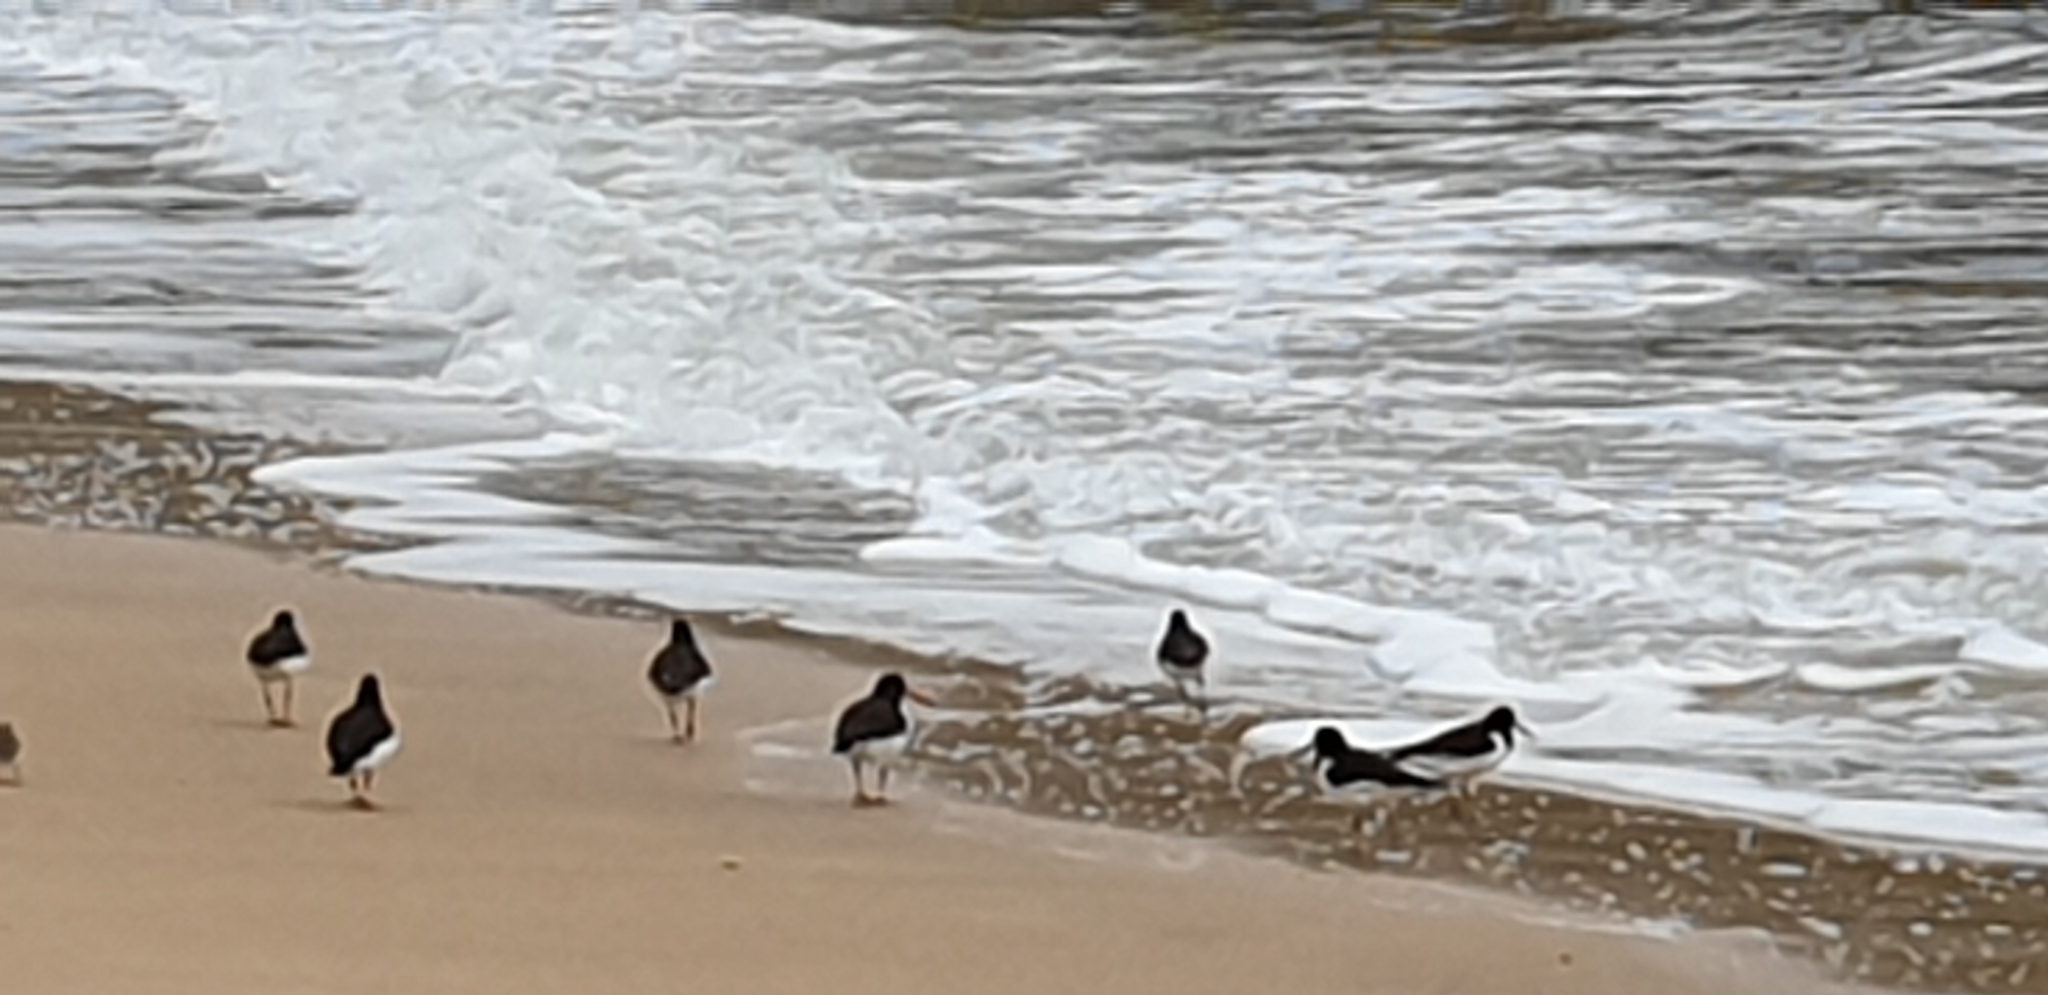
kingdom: Animalia
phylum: Chordata
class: Aves
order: Charadriiformes
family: Haematopodidae
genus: Haematopus
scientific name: Haematopus ostralegus
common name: Eurasian oystercatcher
